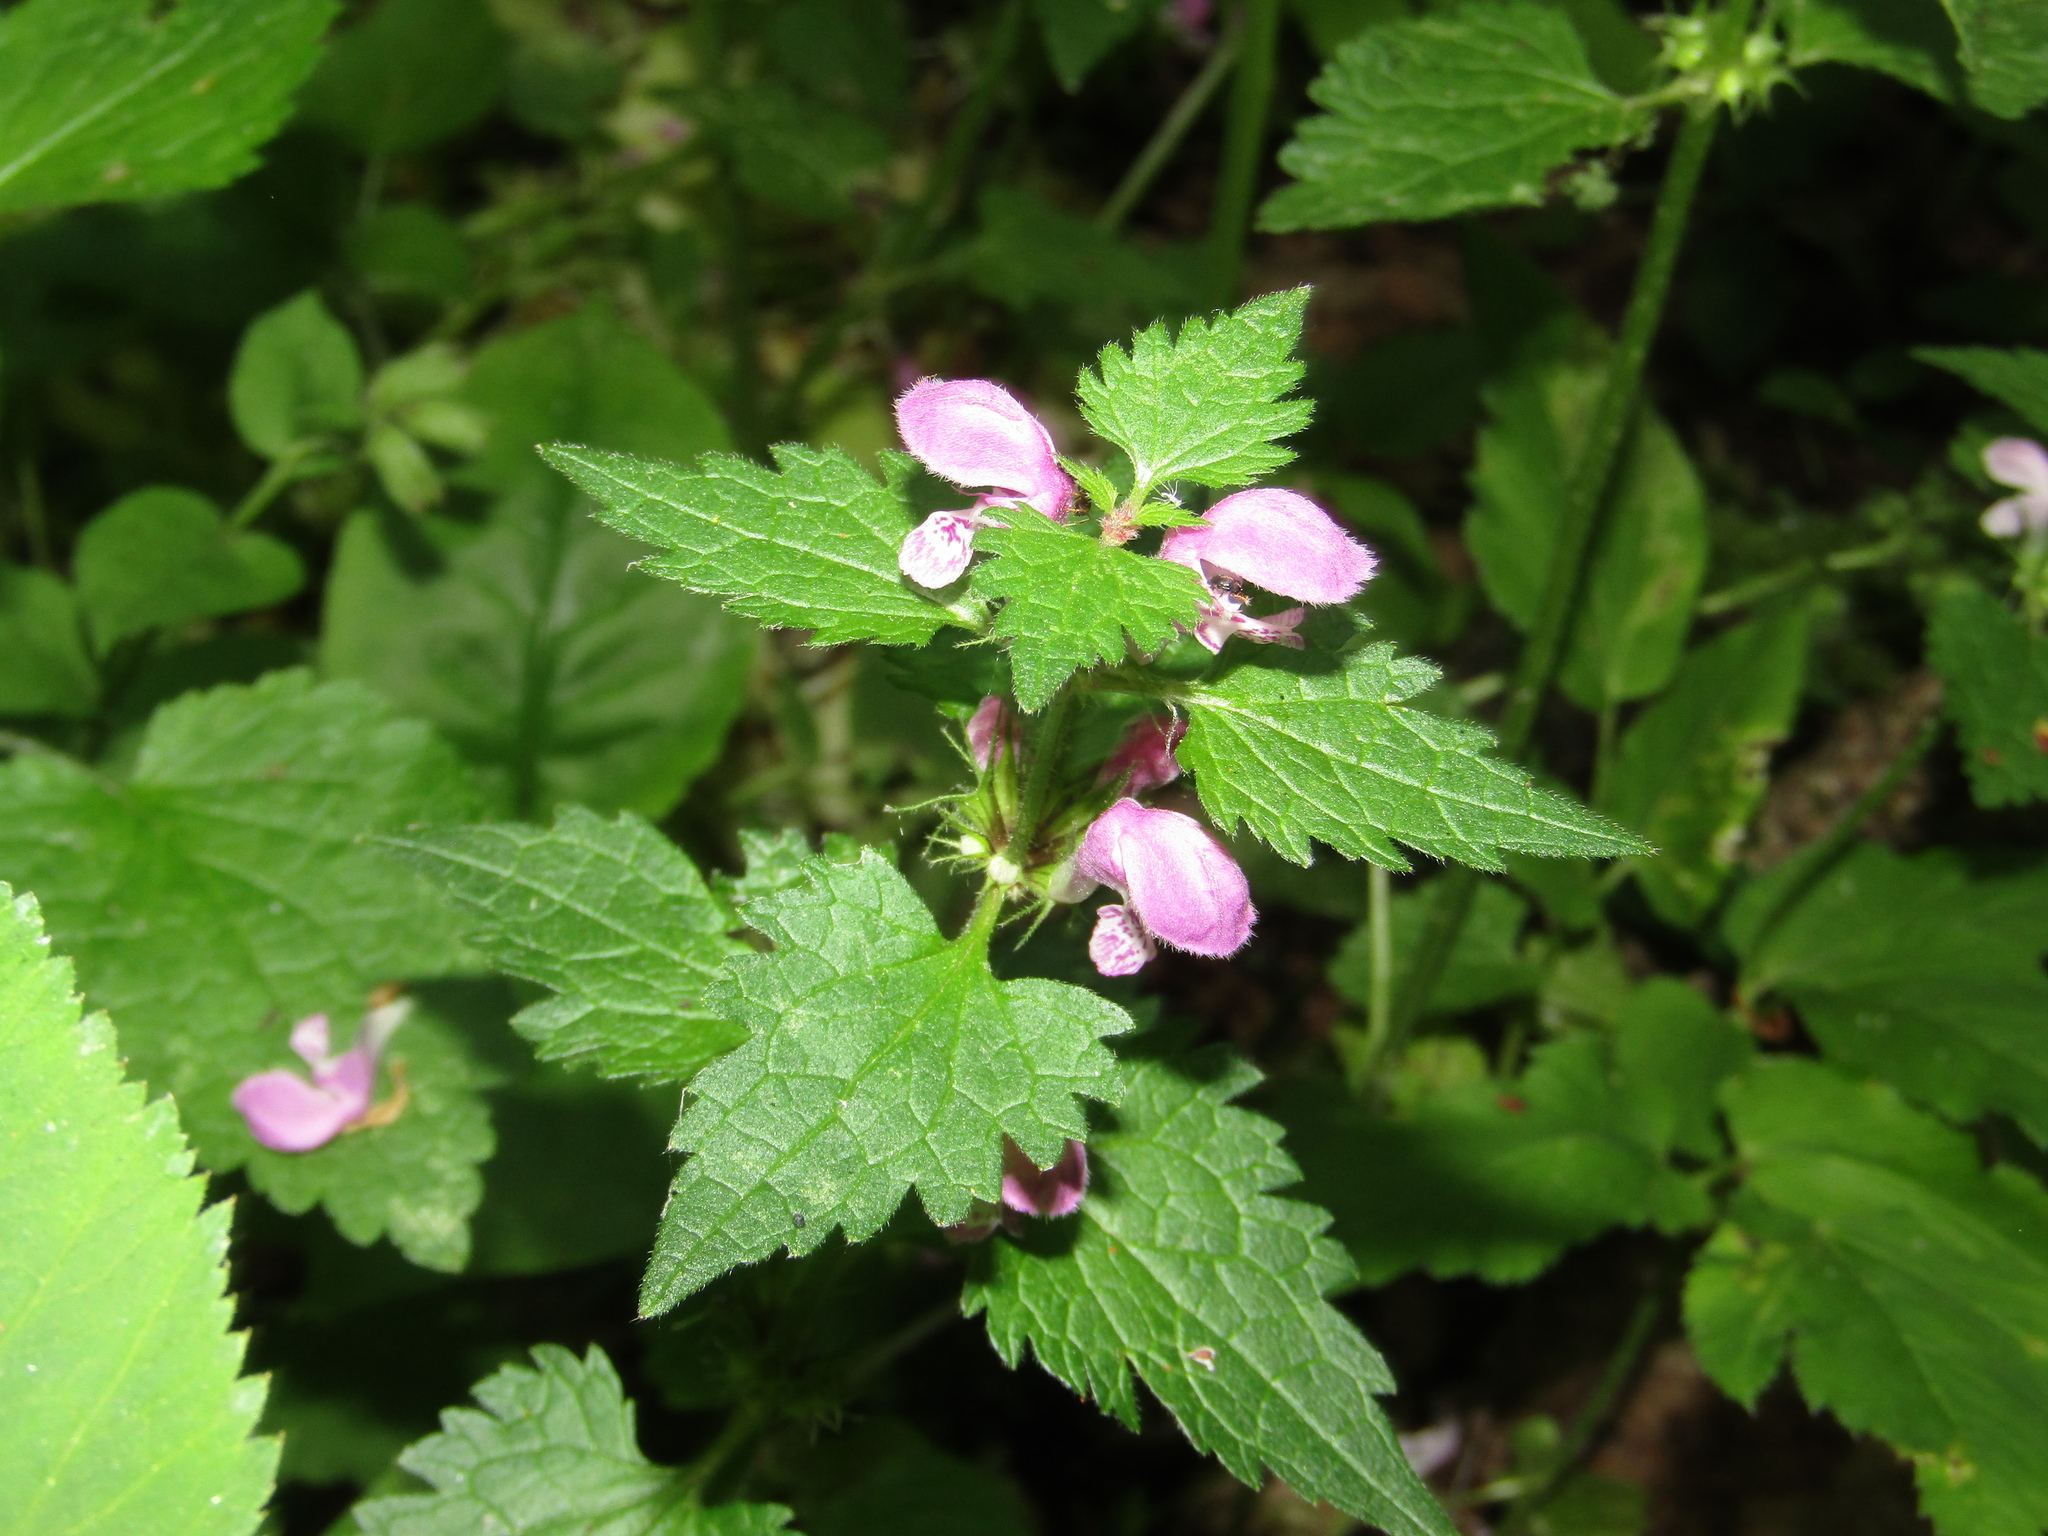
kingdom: Plantae
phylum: Tracheophyta
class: Magnoliopsida
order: Lamiales
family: Lamiaceae
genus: Lamium
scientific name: Lamium maculatum
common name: Spotted dead-nettle
